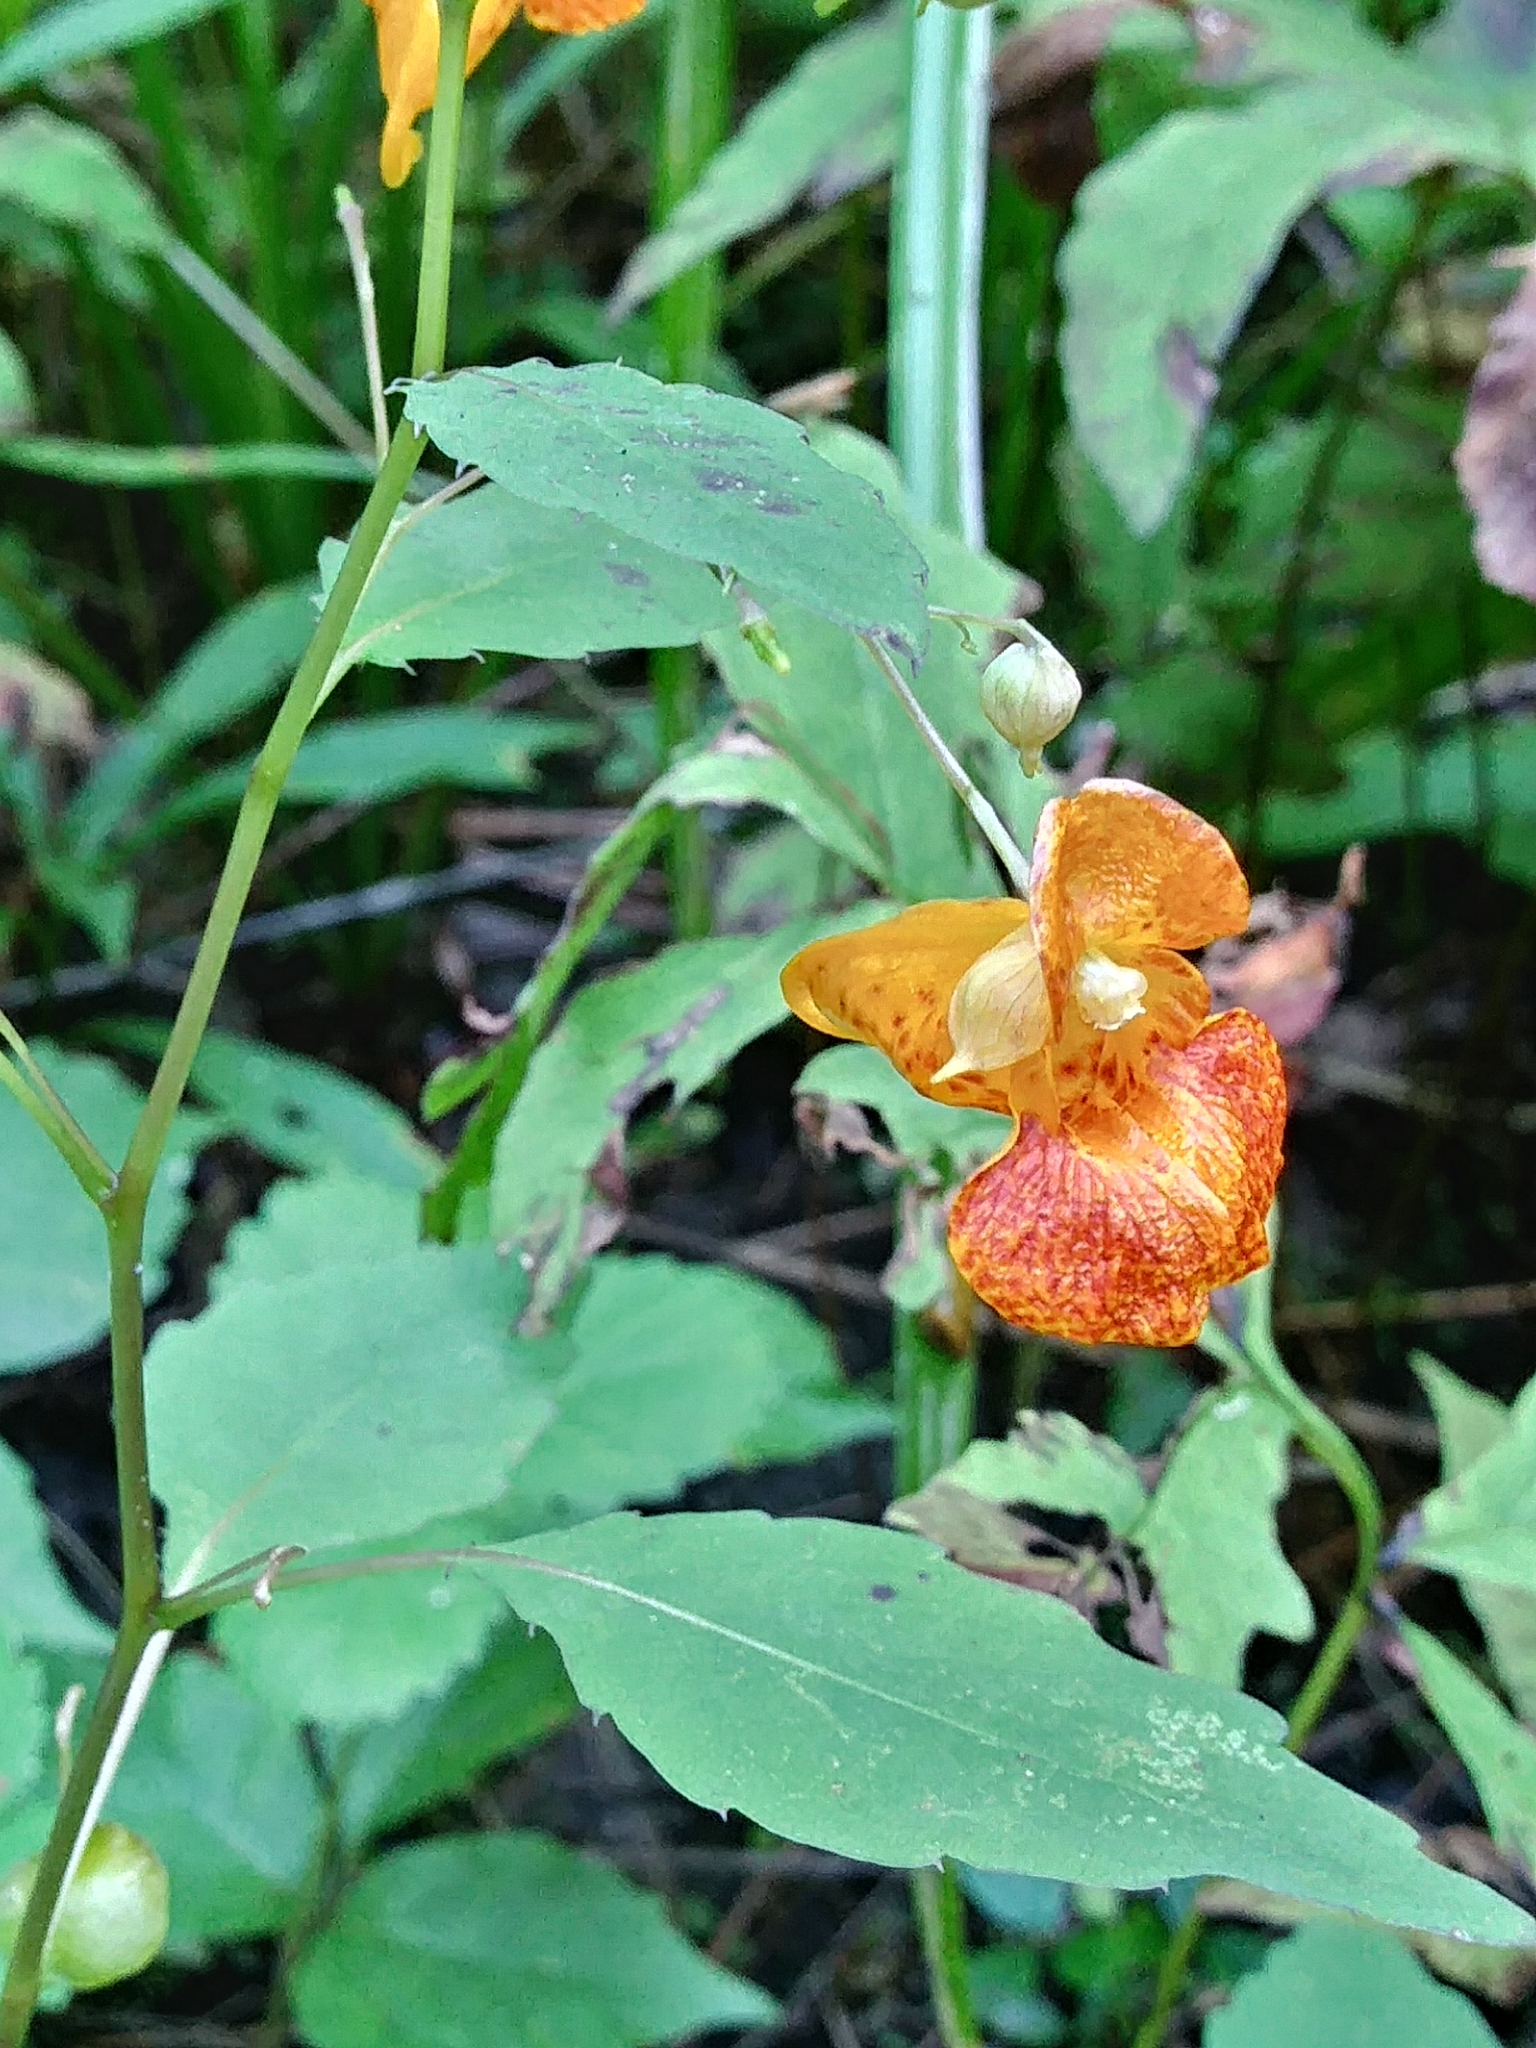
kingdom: Plantae
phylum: Tracheophyta
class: Magnoliopsida
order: Ericales
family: Balsaminaceae
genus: Impatiens
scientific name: Impatiens capensis
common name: Orange balsam
